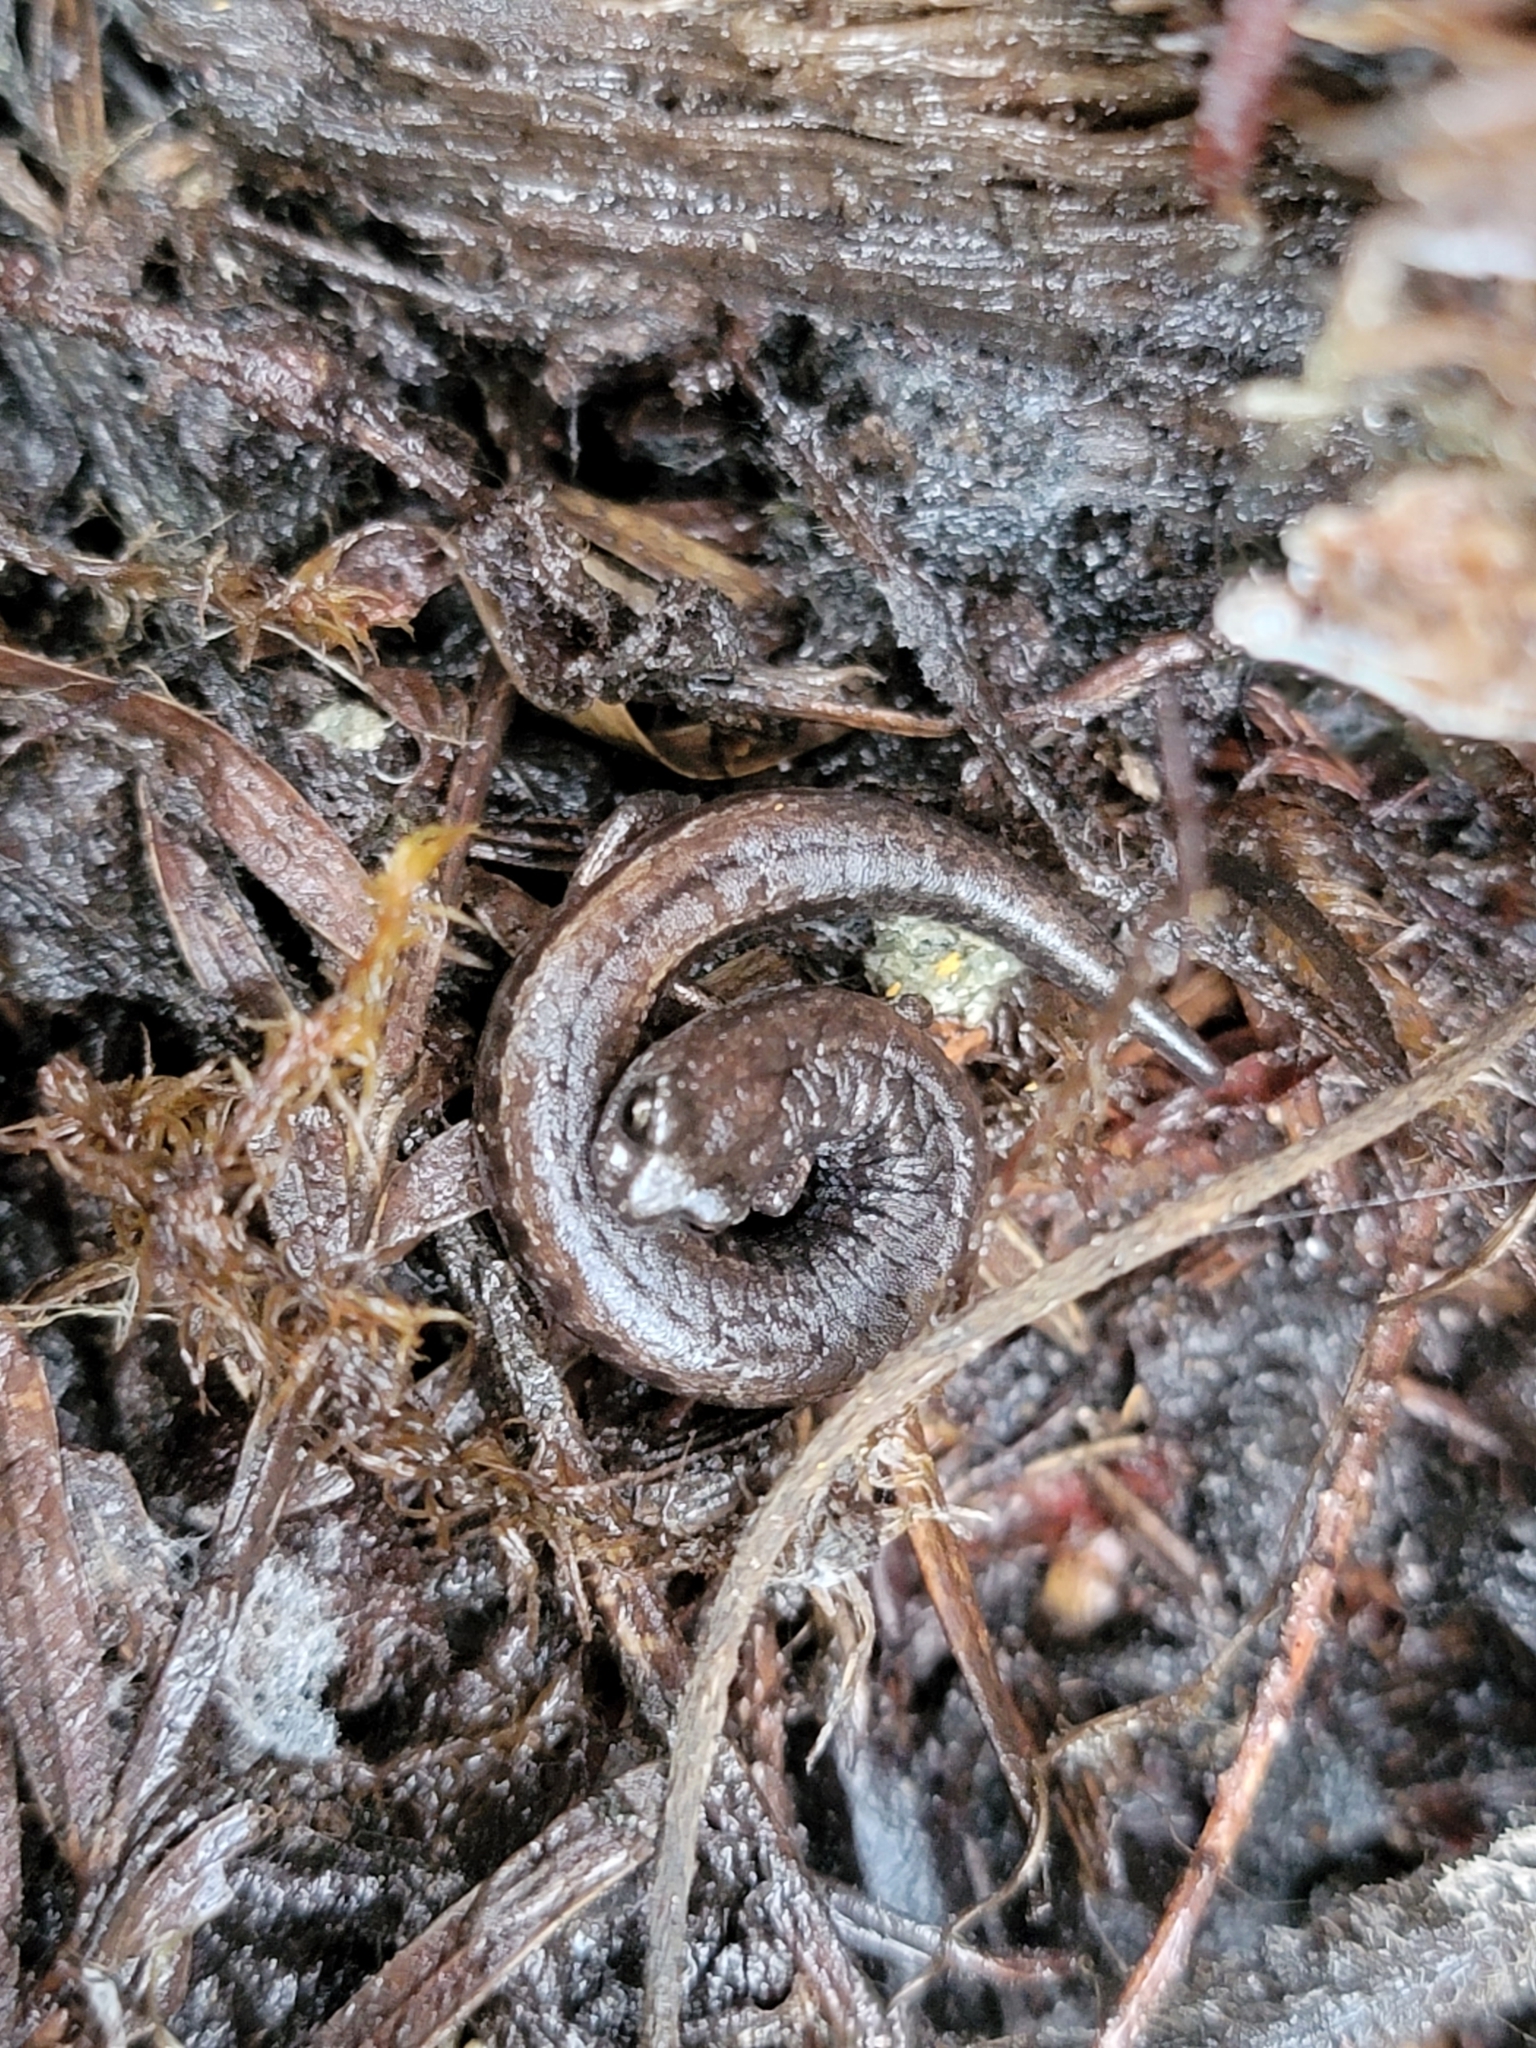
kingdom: Animalia
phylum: Chordata
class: Amphibia
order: Caudata
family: Plethodontidae
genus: Batrachoseps
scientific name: Batrachoseps attenuatus
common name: California slender salamander
